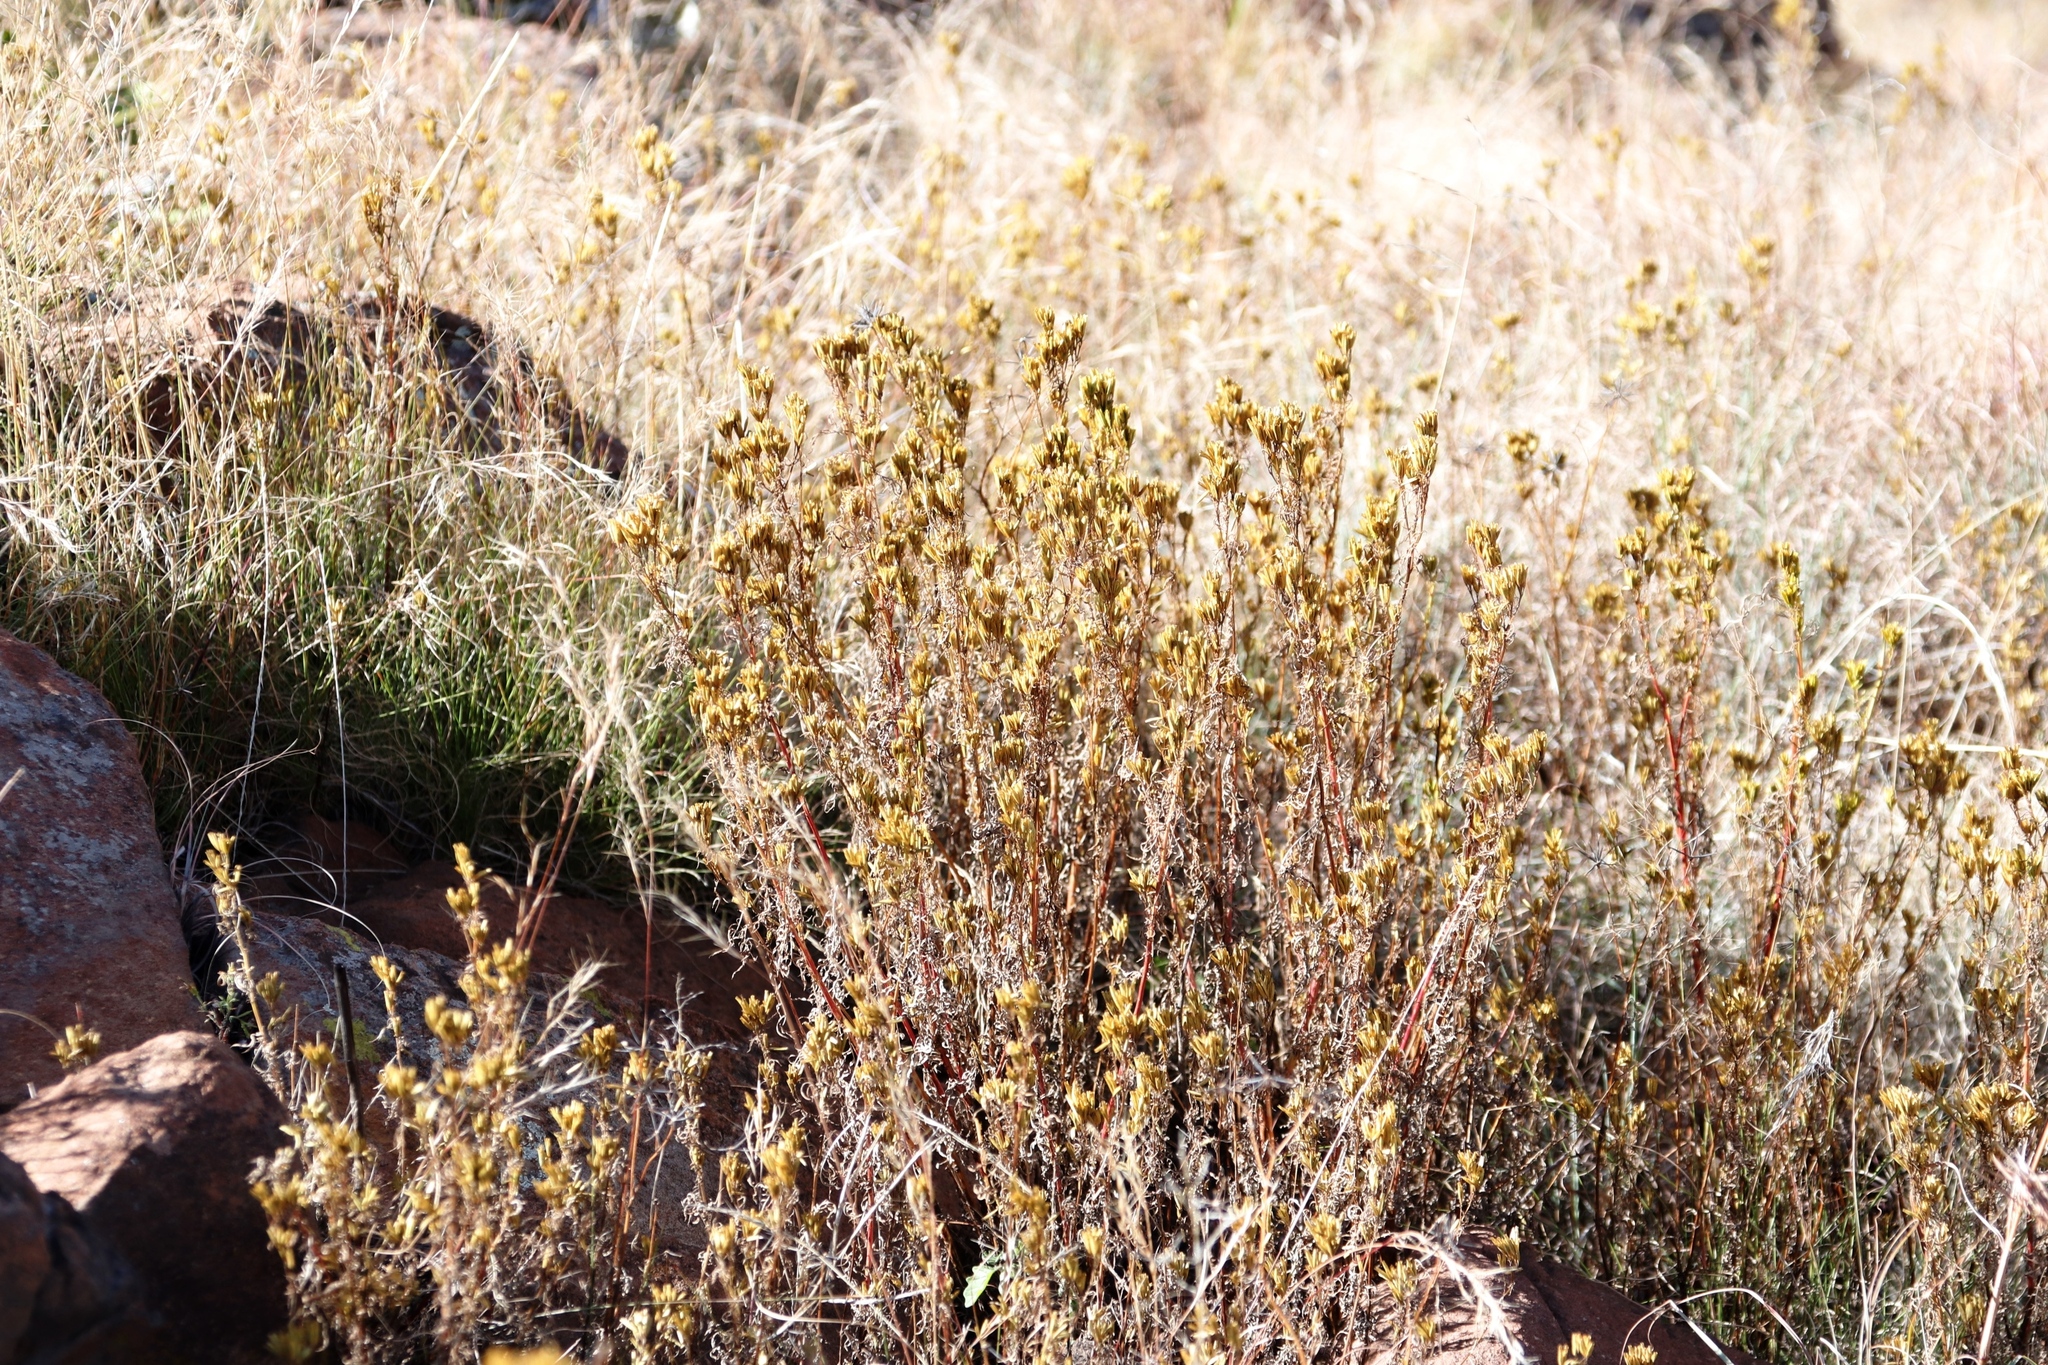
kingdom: Plantae
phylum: Tracheophyta
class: Magnoliopsida
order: Asterales
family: Asteraceae
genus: Tagetes
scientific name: Tagetes minuta
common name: Muster john henry
